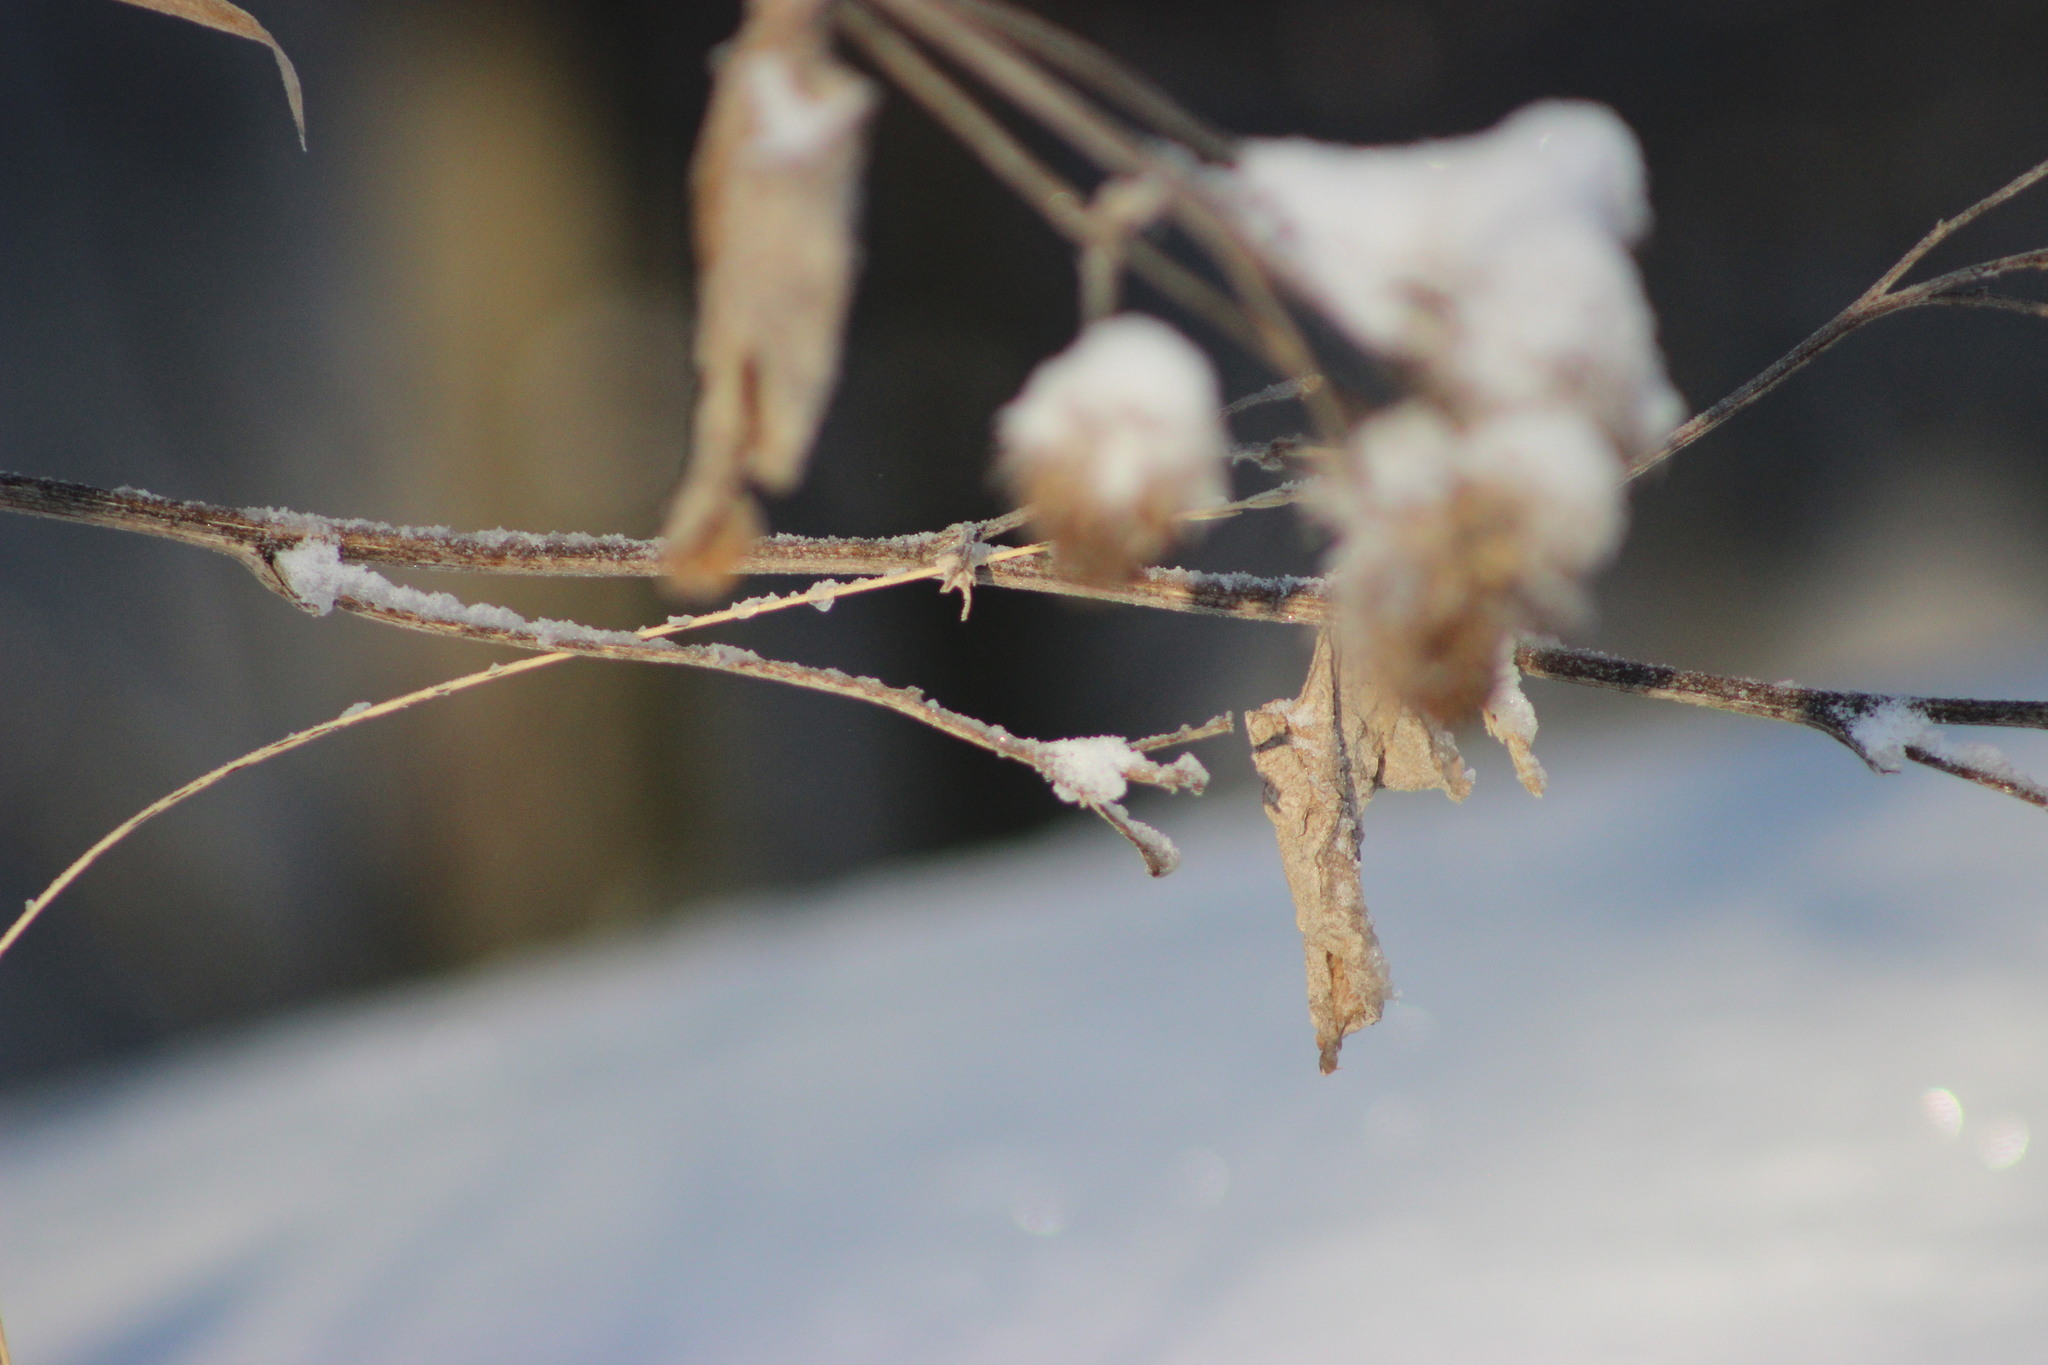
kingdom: Plantae
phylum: Tracheophyta
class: Magnoliopsida
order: Asterales
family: Asteraceae
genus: Arctium
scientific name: Arctium tomentosum
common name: Woolly burdock
